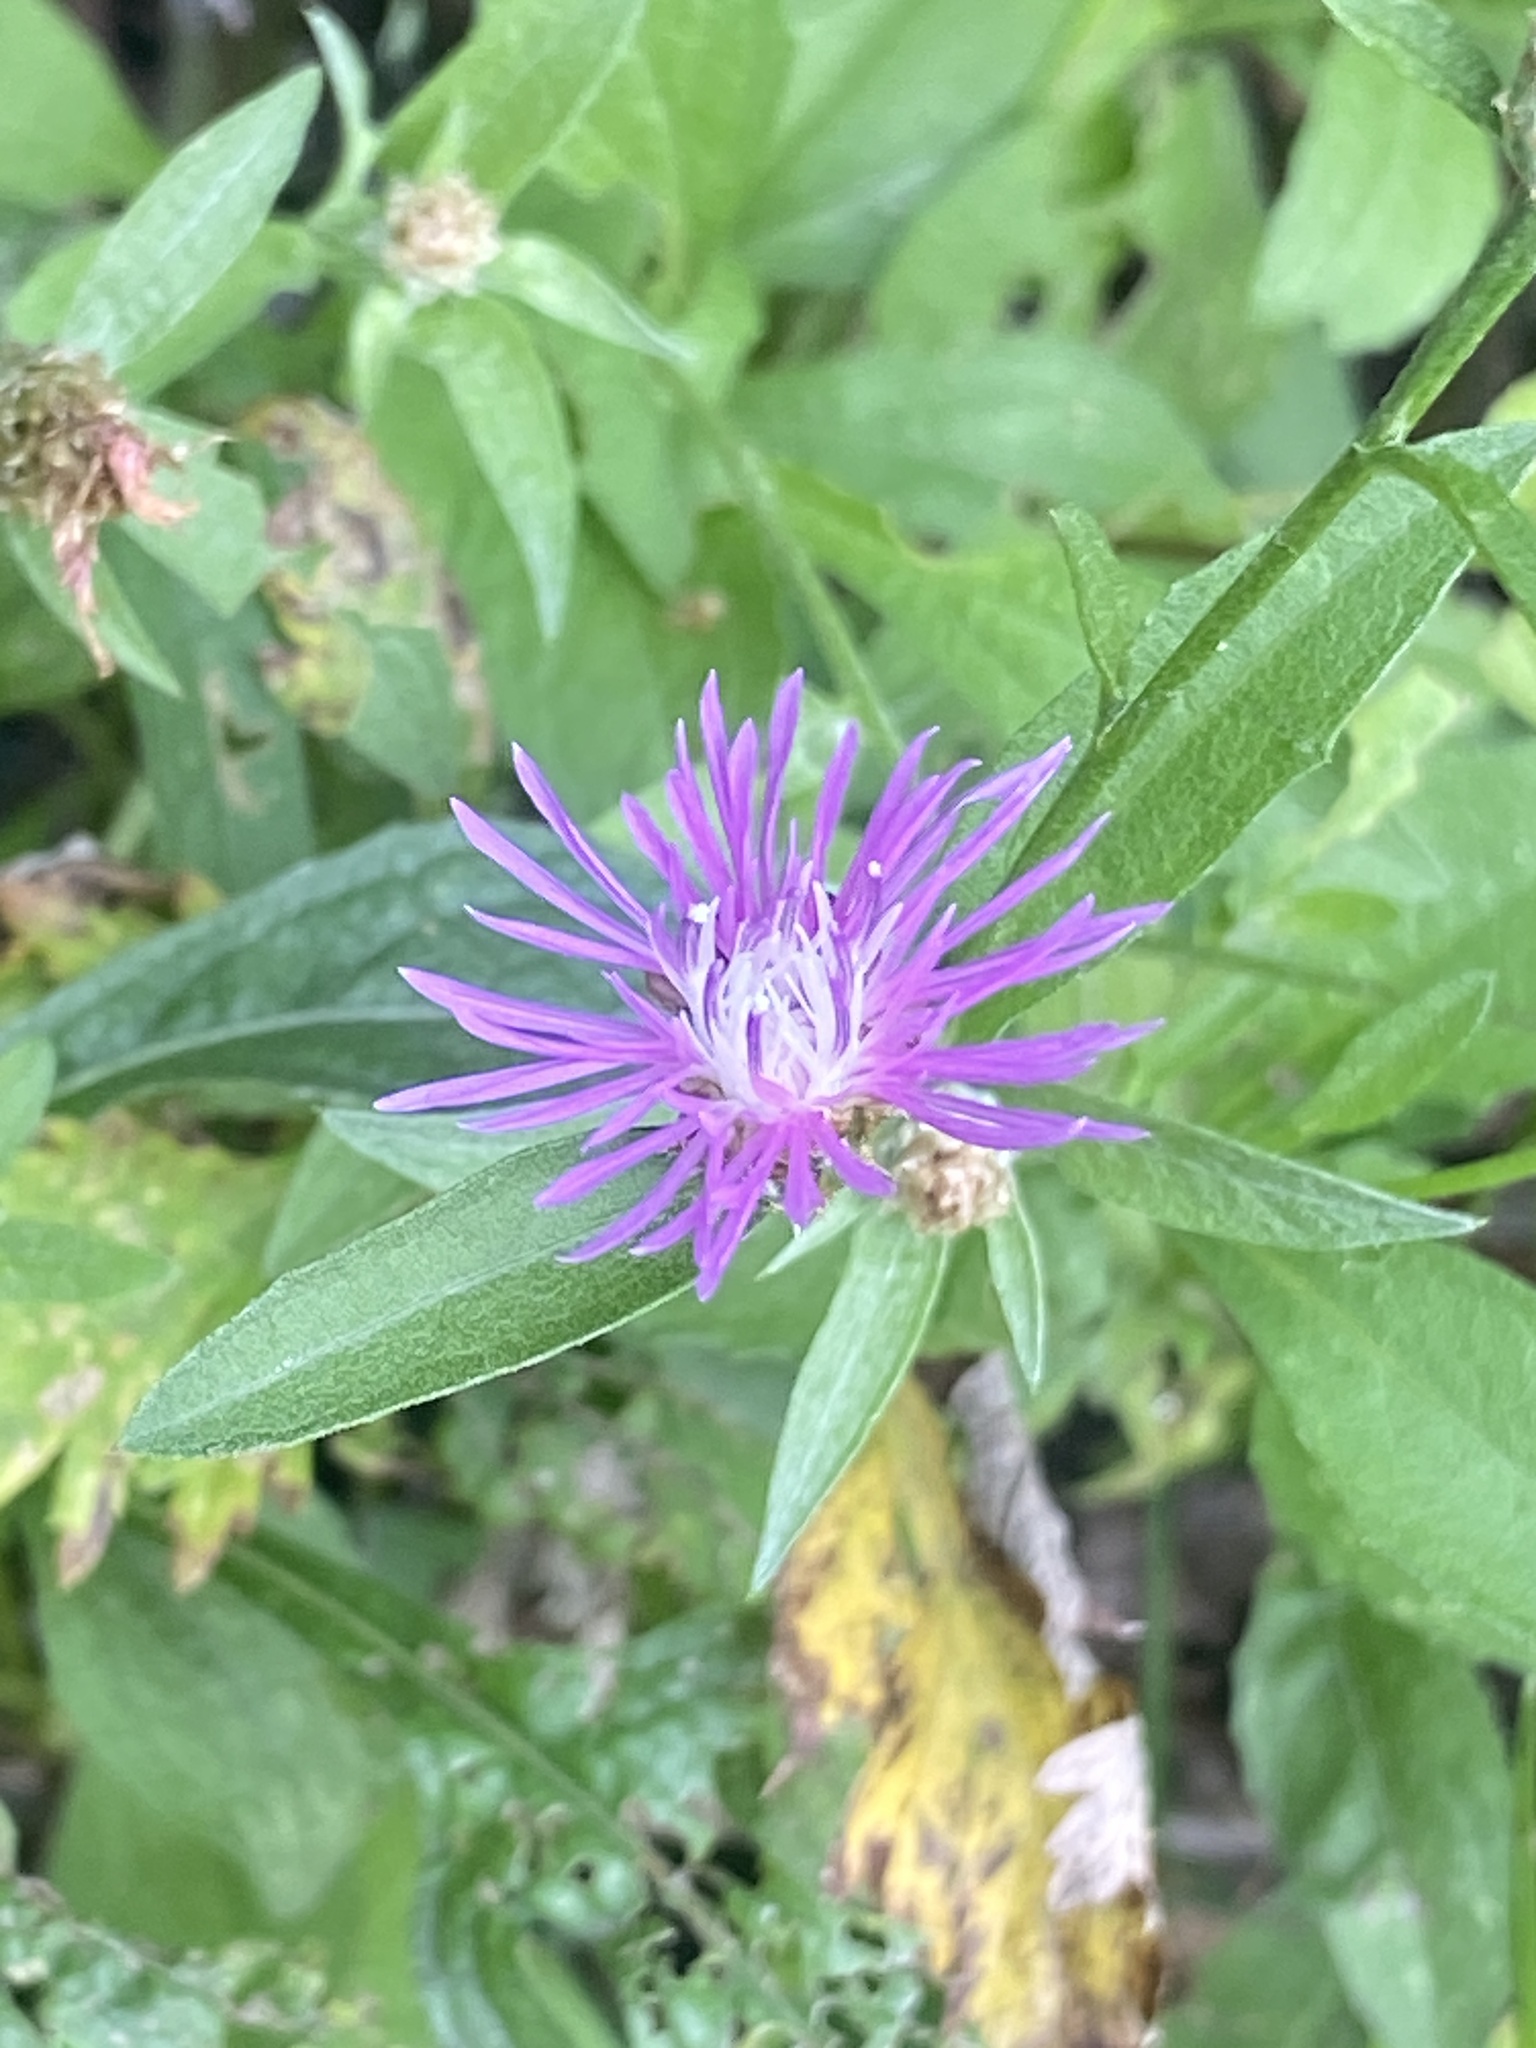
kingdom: Plantae
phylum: Tracheophyta
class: Magnoliopsida
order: Asterales
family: Asteraceae
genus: Centaurea
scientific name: Centaurea jacea
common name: Brown knapweed
